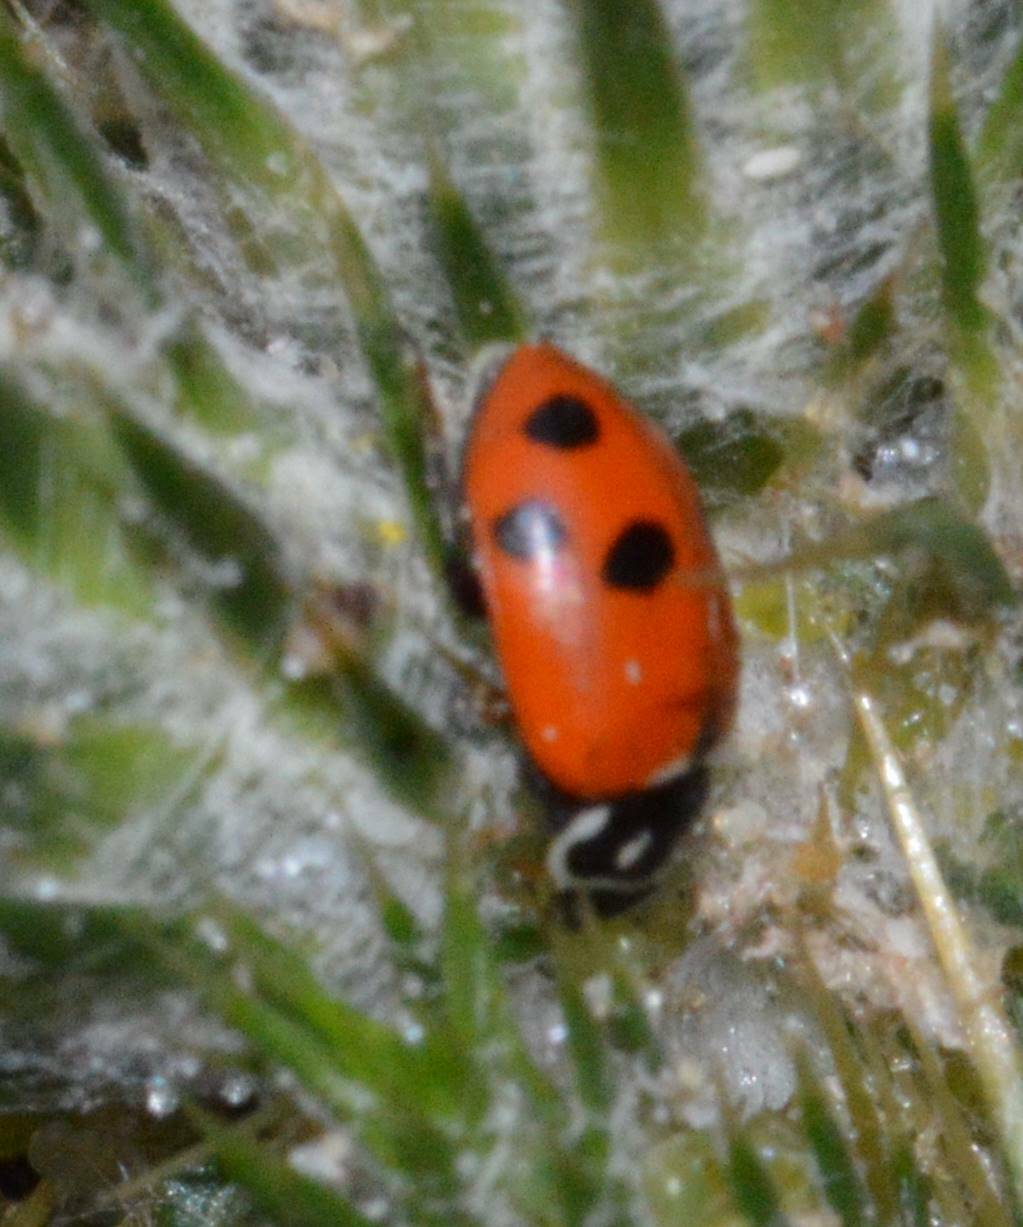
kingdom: Animalia
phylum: Arthropoda
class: Insecta
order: Coleoptera
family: Coccinellidae
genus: Hippodamia
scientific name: Hippodamia variegata
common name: Ladybird beetle
